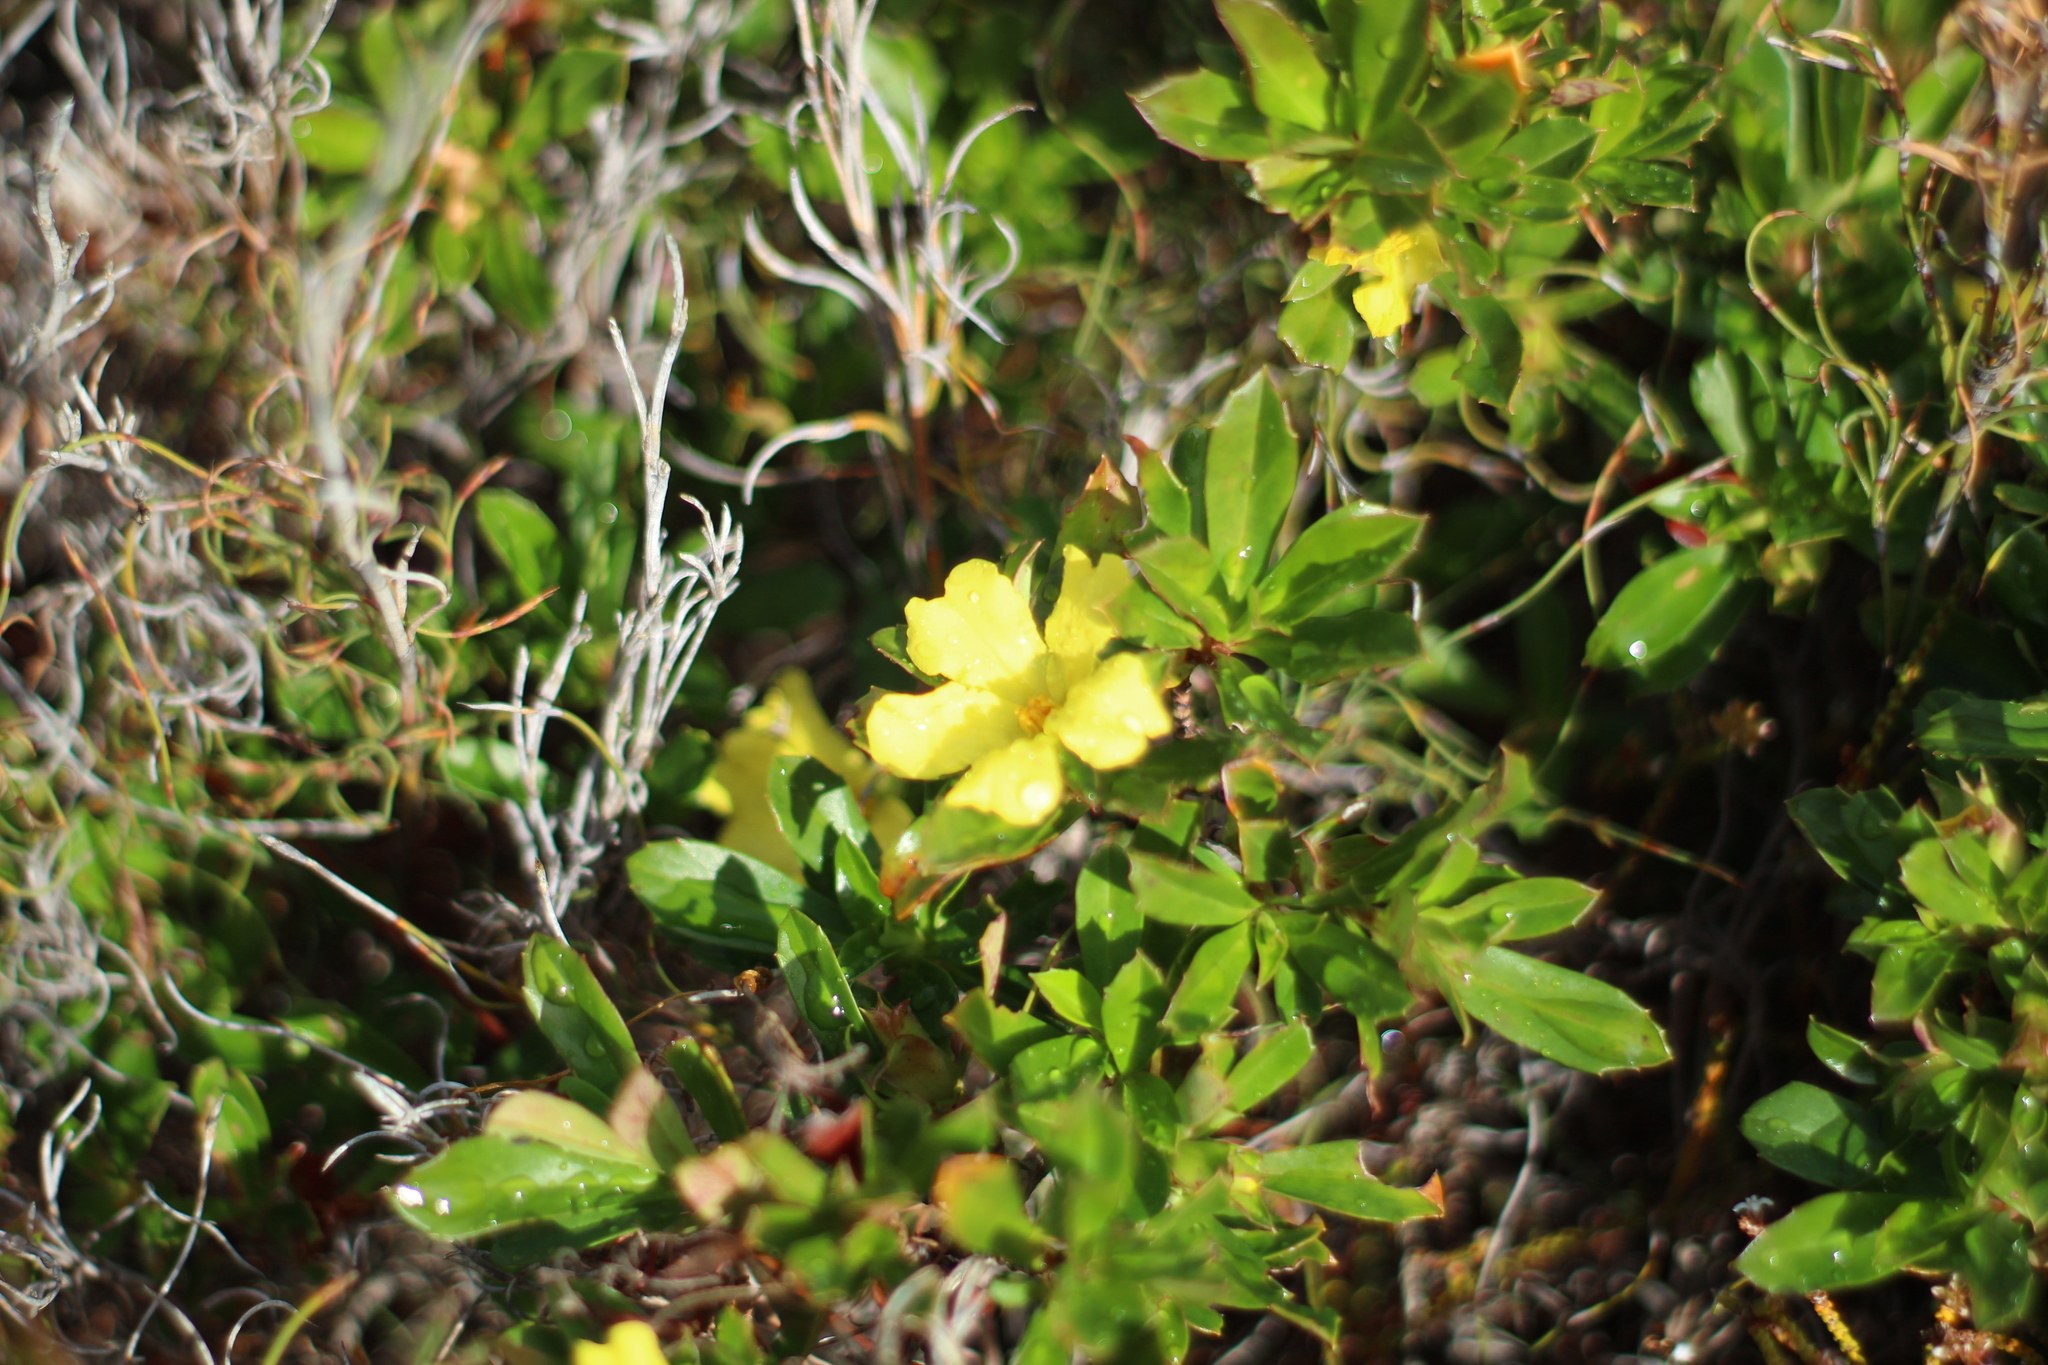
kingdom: Plantae
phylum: Tracheophyta
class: Magnoliopsida
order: Dilleniales
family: Dilleniaceae
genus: Hibbertia
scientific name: Hibbertia cuneiformis
